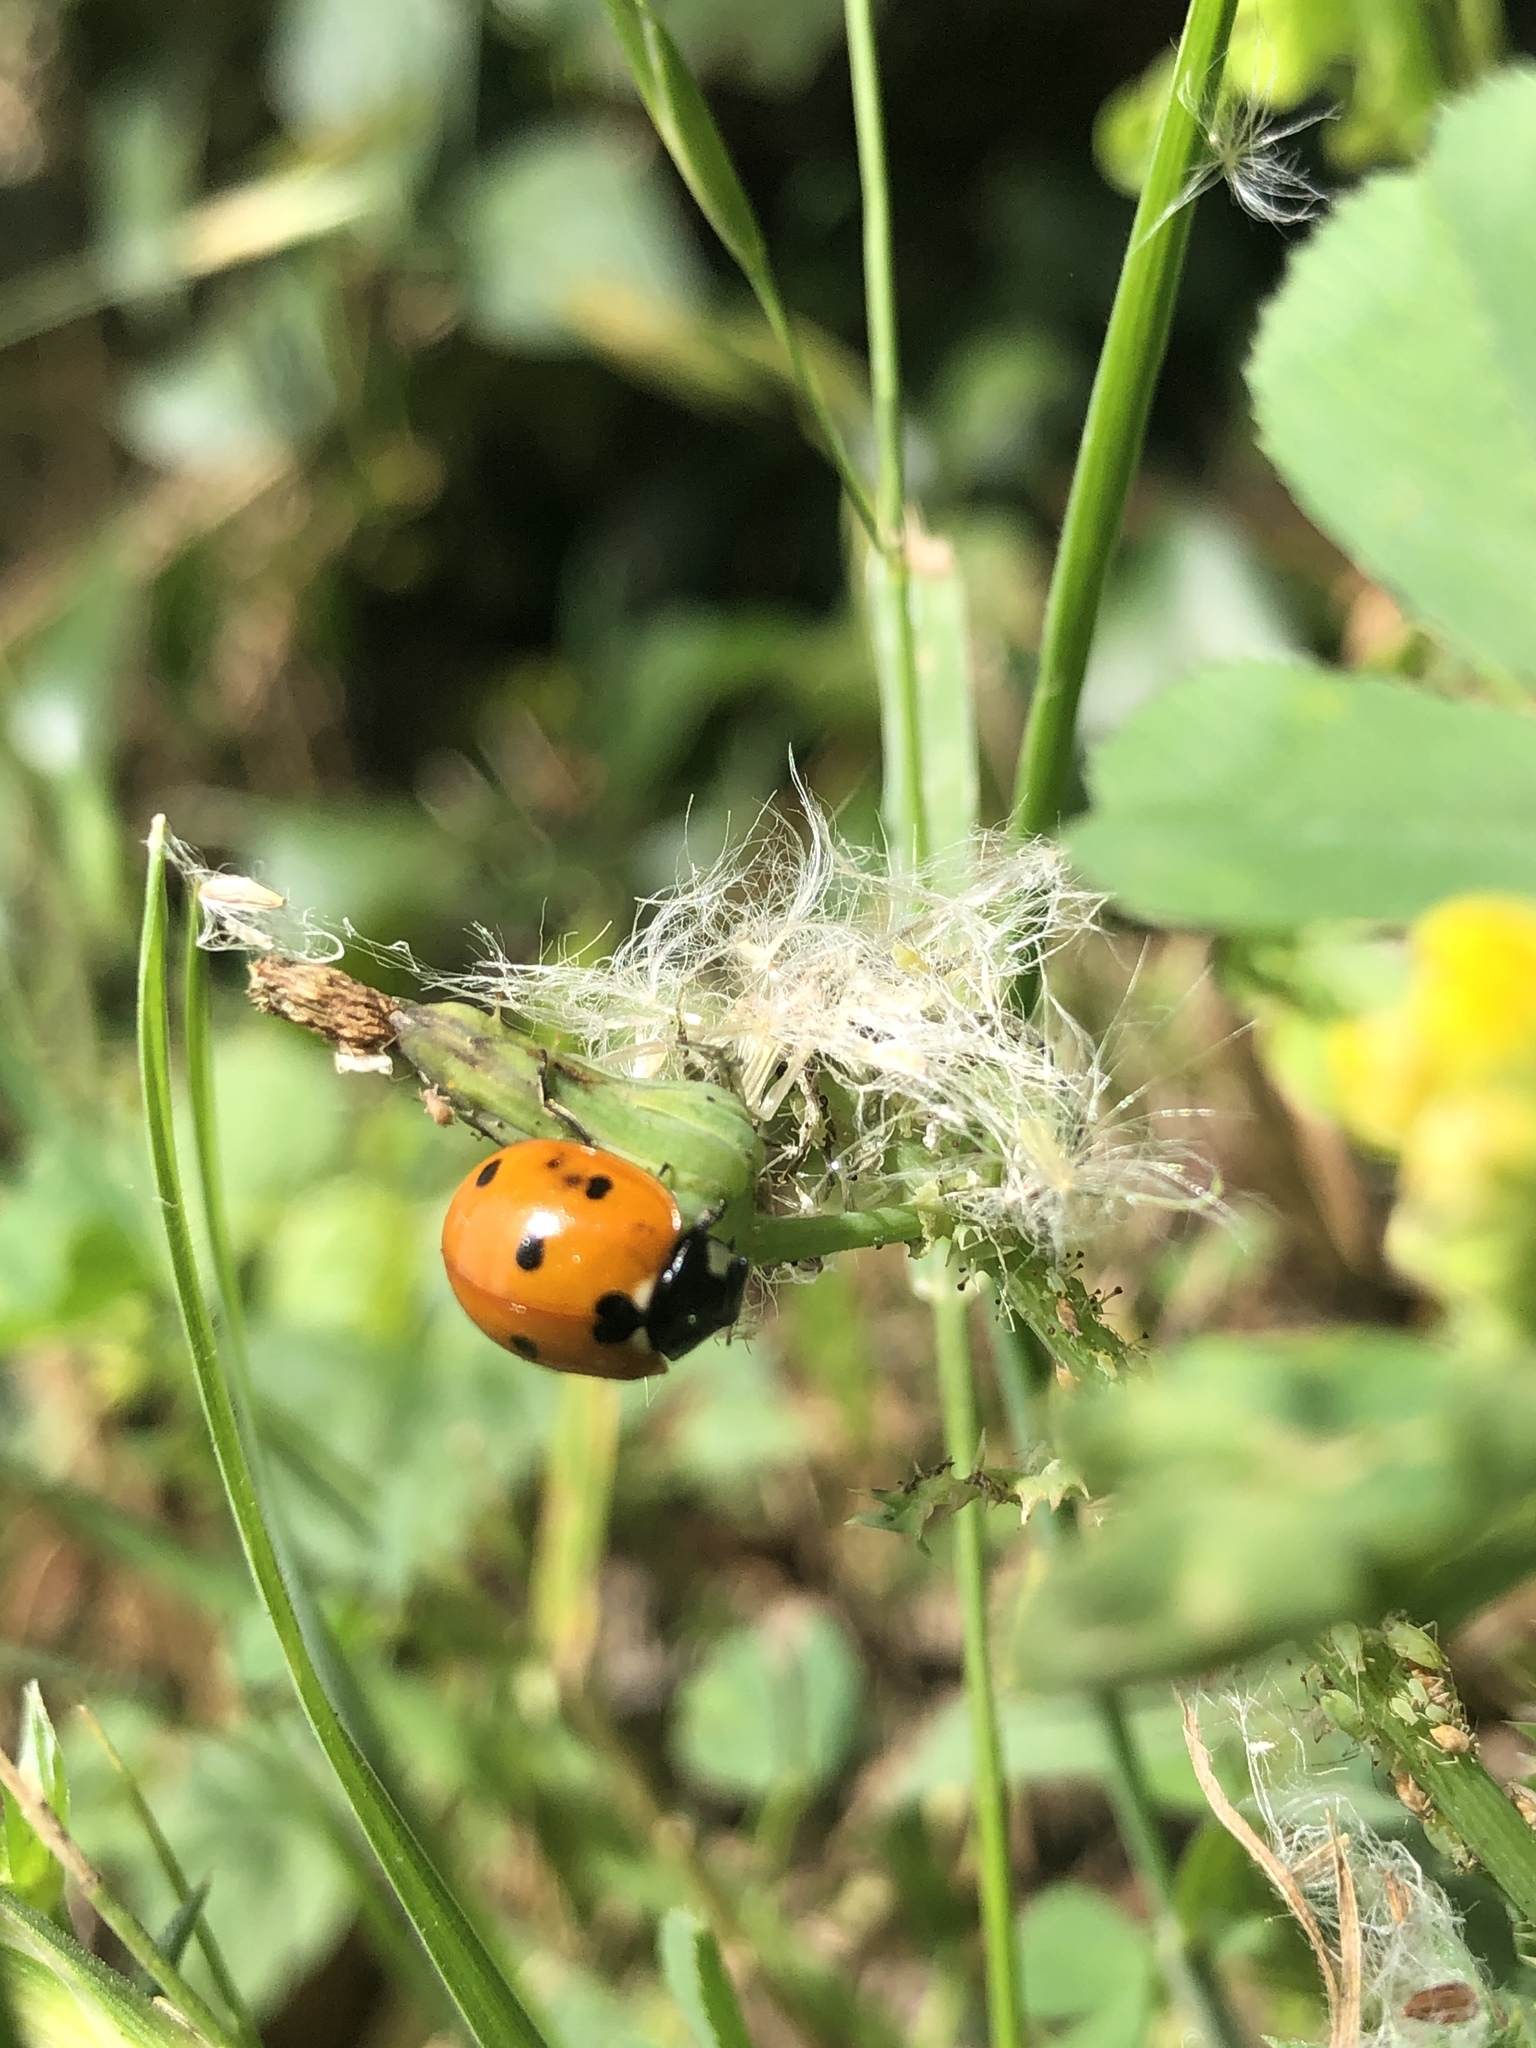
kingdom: Animalia
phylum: Arthropoda
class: Insecta
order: Coleoptera
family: Coccinellidae
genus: Coccinella
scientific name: Coccinella septempunctata
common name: Sevenspotted lady beetle
